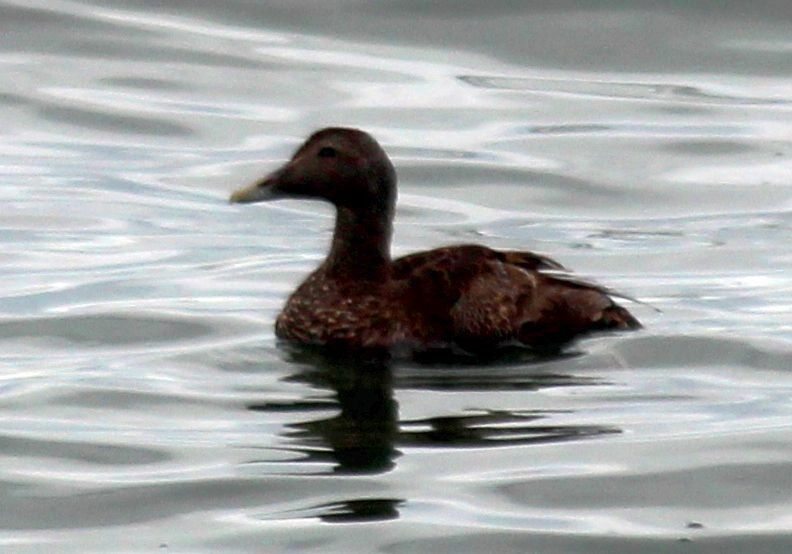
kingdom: Animalia
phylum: Chordata
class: Aves
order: Anseriformes
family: Anatidae
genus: Somateria
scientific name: Somateria mollissima
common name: Common eider
